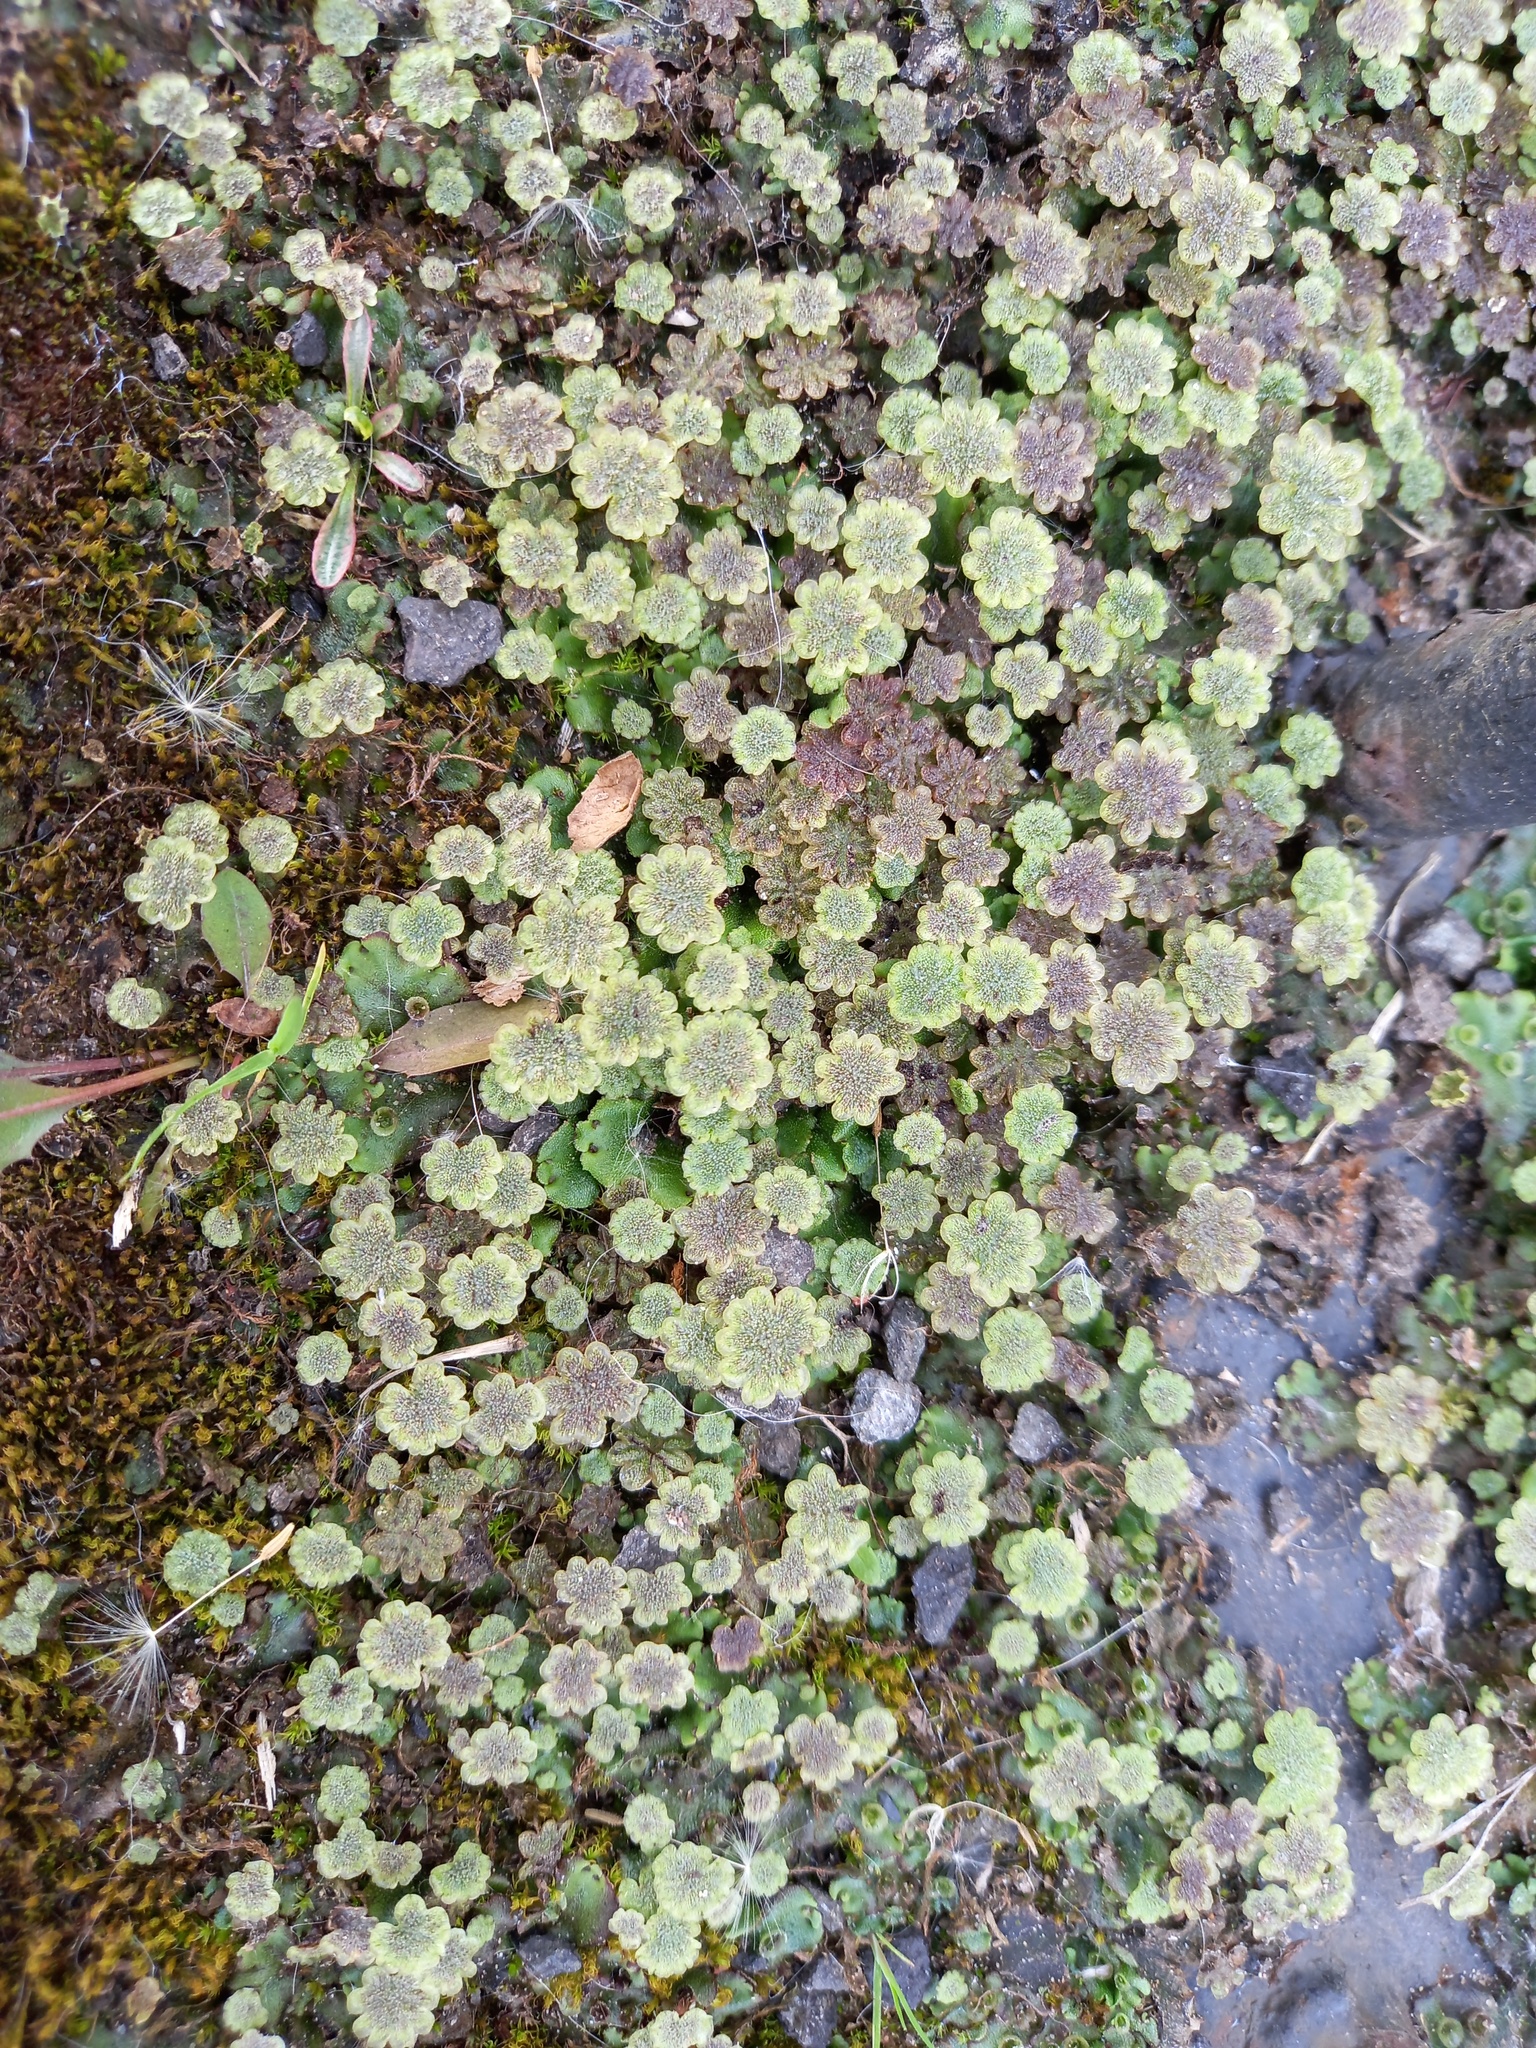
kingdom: Plantae
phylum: Marchantiophyta
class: Marchantiopsida
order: Marchantiales
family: Marchantiaceae
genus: Marchantia
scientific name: Marchantia polymorpha
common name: Common liverwort
